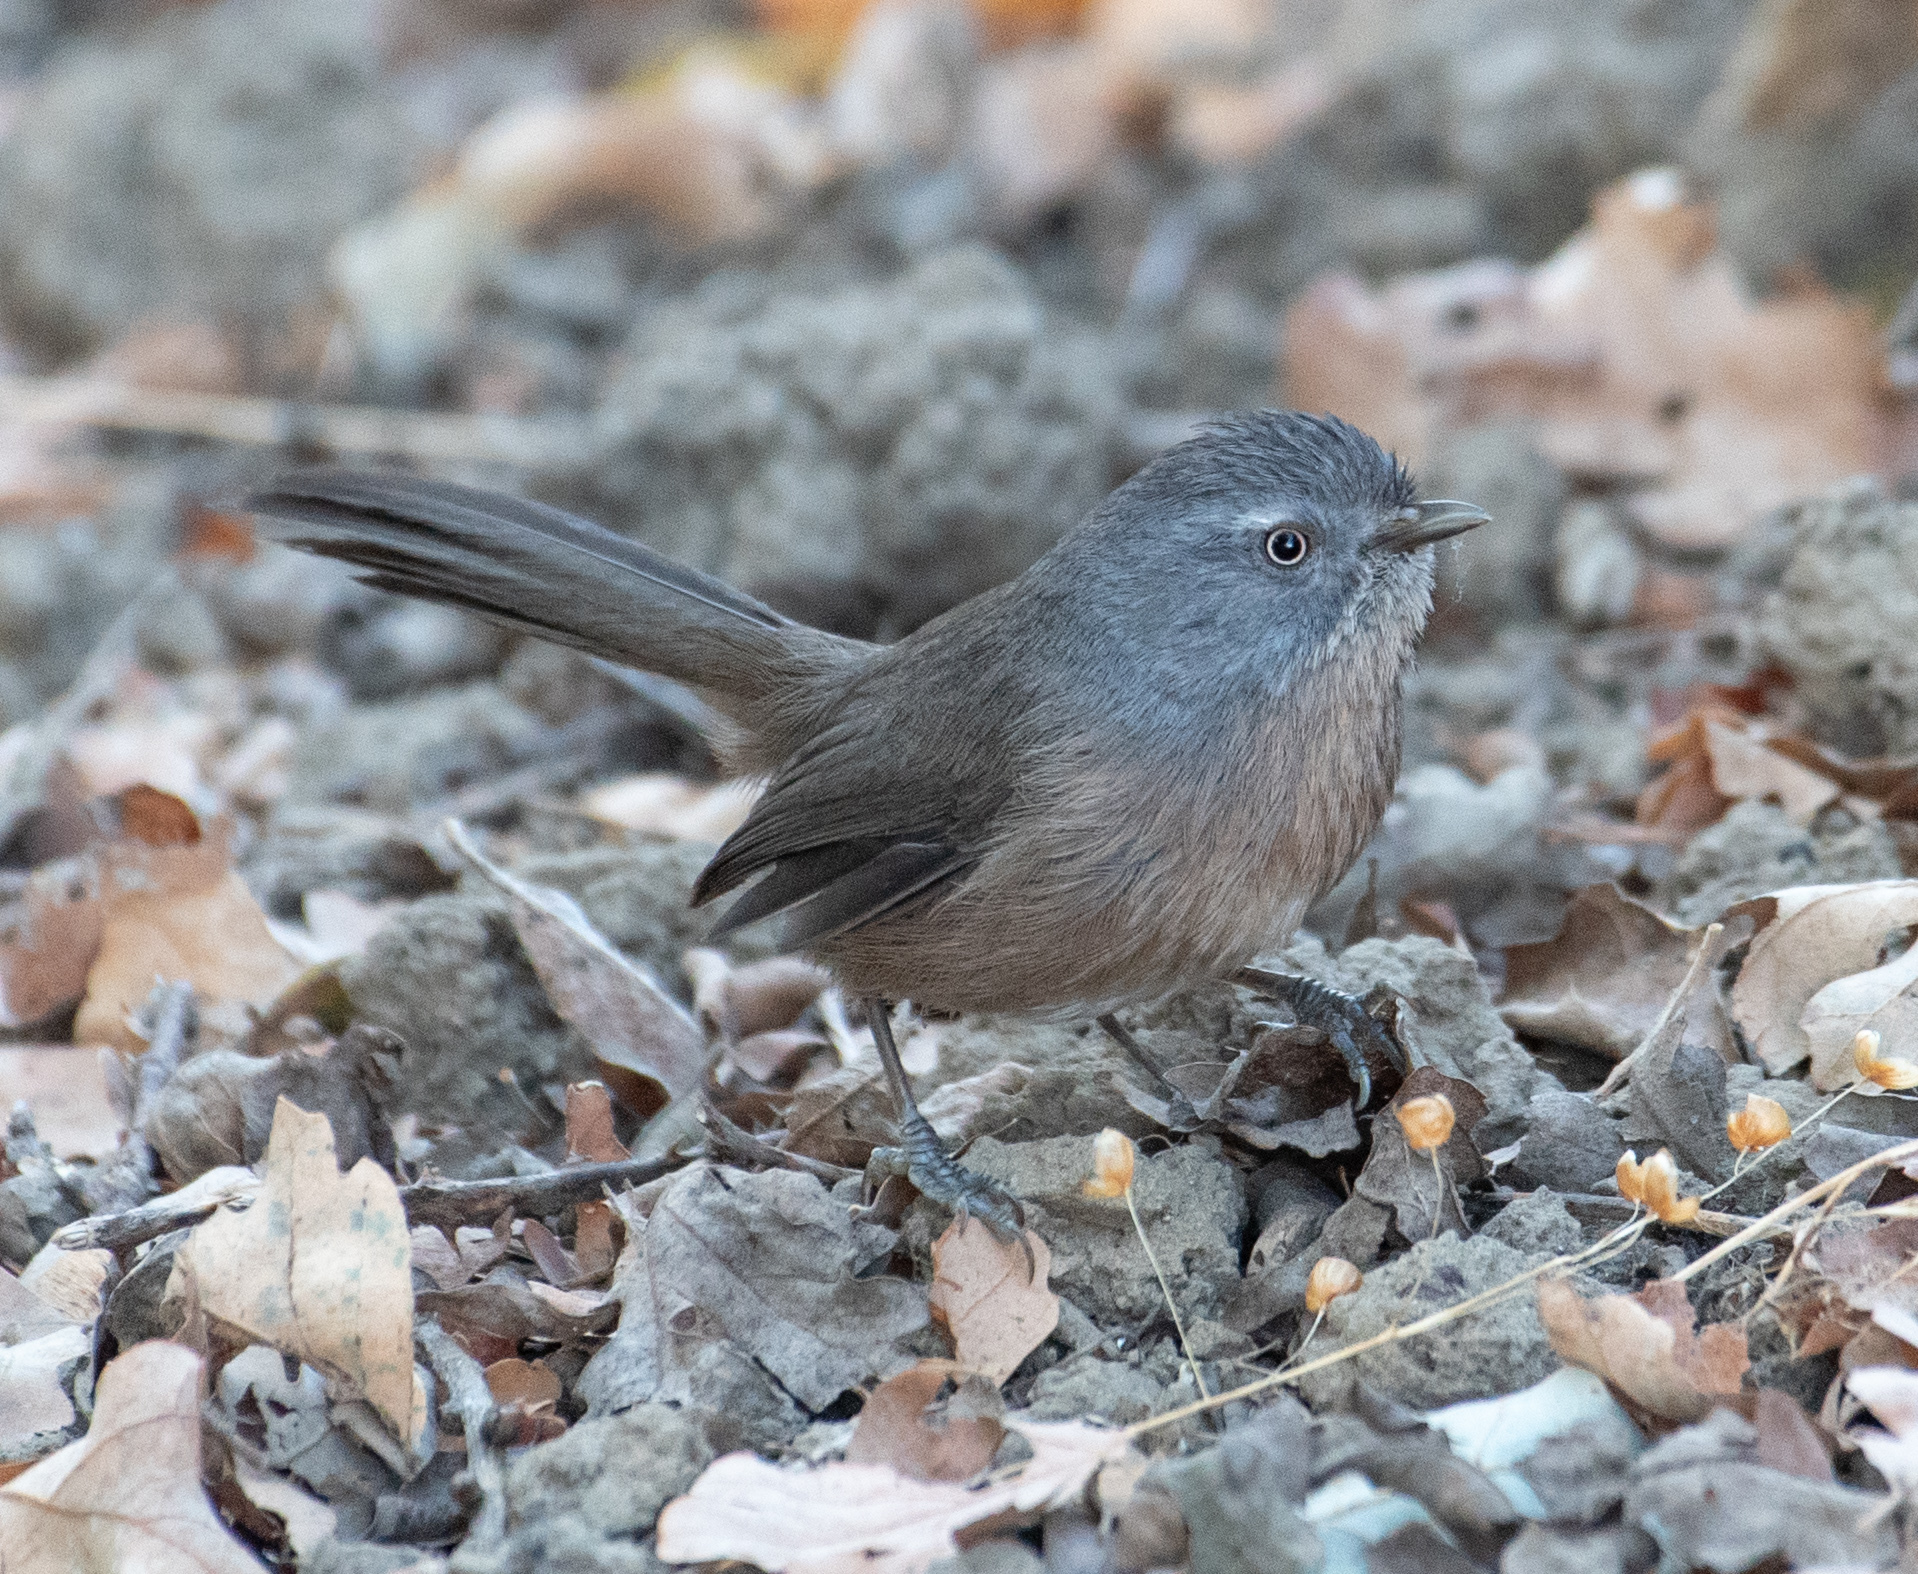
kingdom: Animalia
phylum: Chordata
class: Aves
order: Passeriformes
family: Sylviidae
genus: Chamaea
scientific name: Chamaea fasciata
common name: Wrentit
